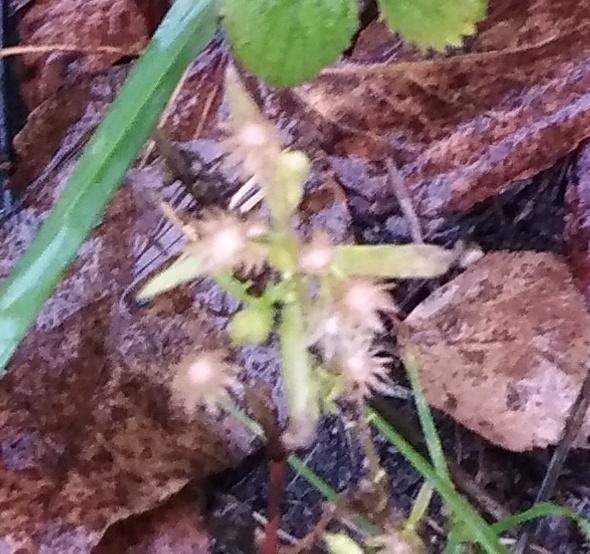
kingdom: Plantae
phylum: Tracheophyta
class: Magnoliopsida
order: Asterales
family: Asteraceae
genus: Erigeron
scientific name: Erigeron canadensis
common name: Canadian fleabane
